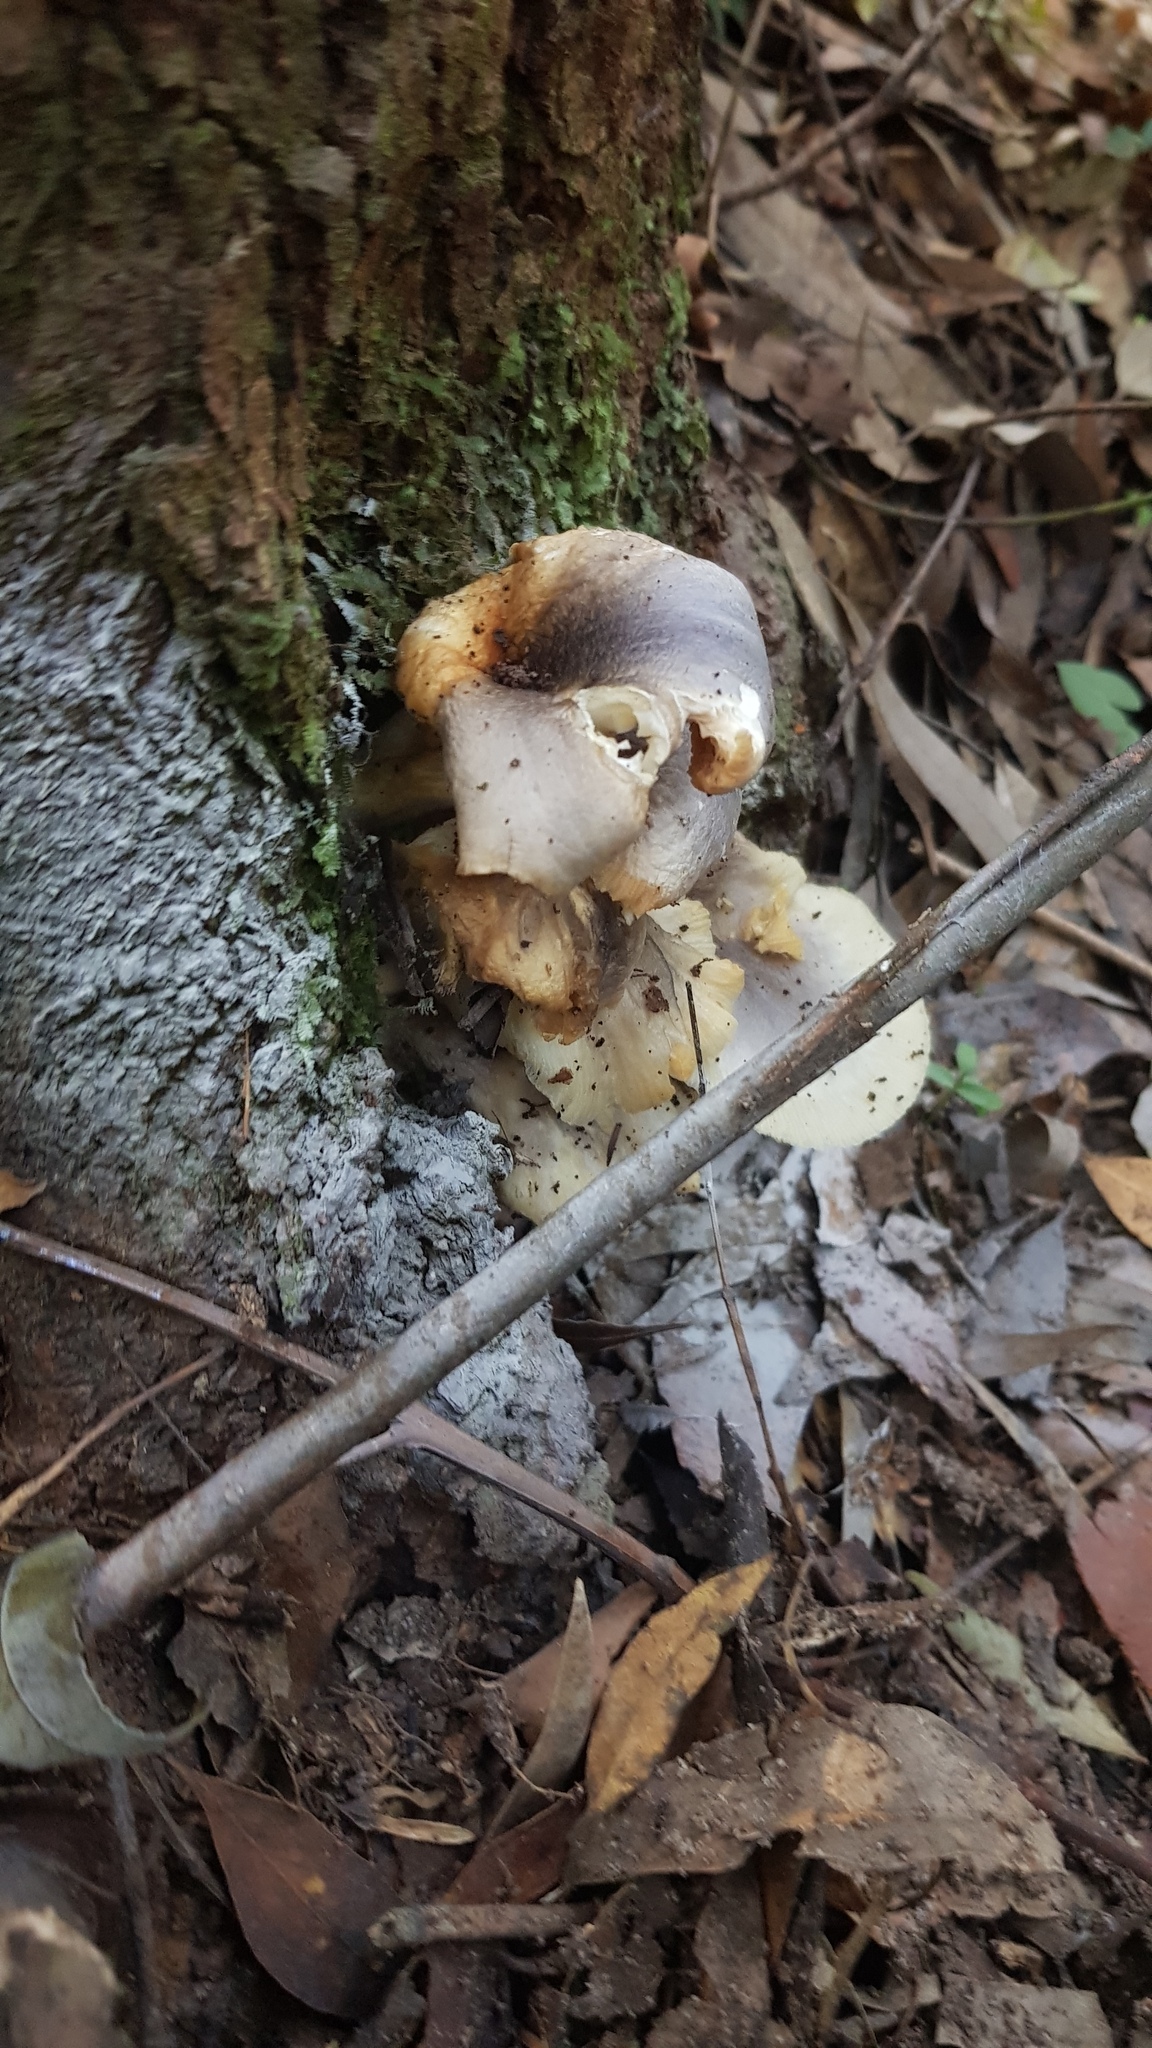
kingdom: Fungi
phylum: Basidiomycota
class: Agaricomycetes
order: Agaricales
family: Omphalotaceae
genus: Omphalotus
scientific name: Omphalotus nidiformis
